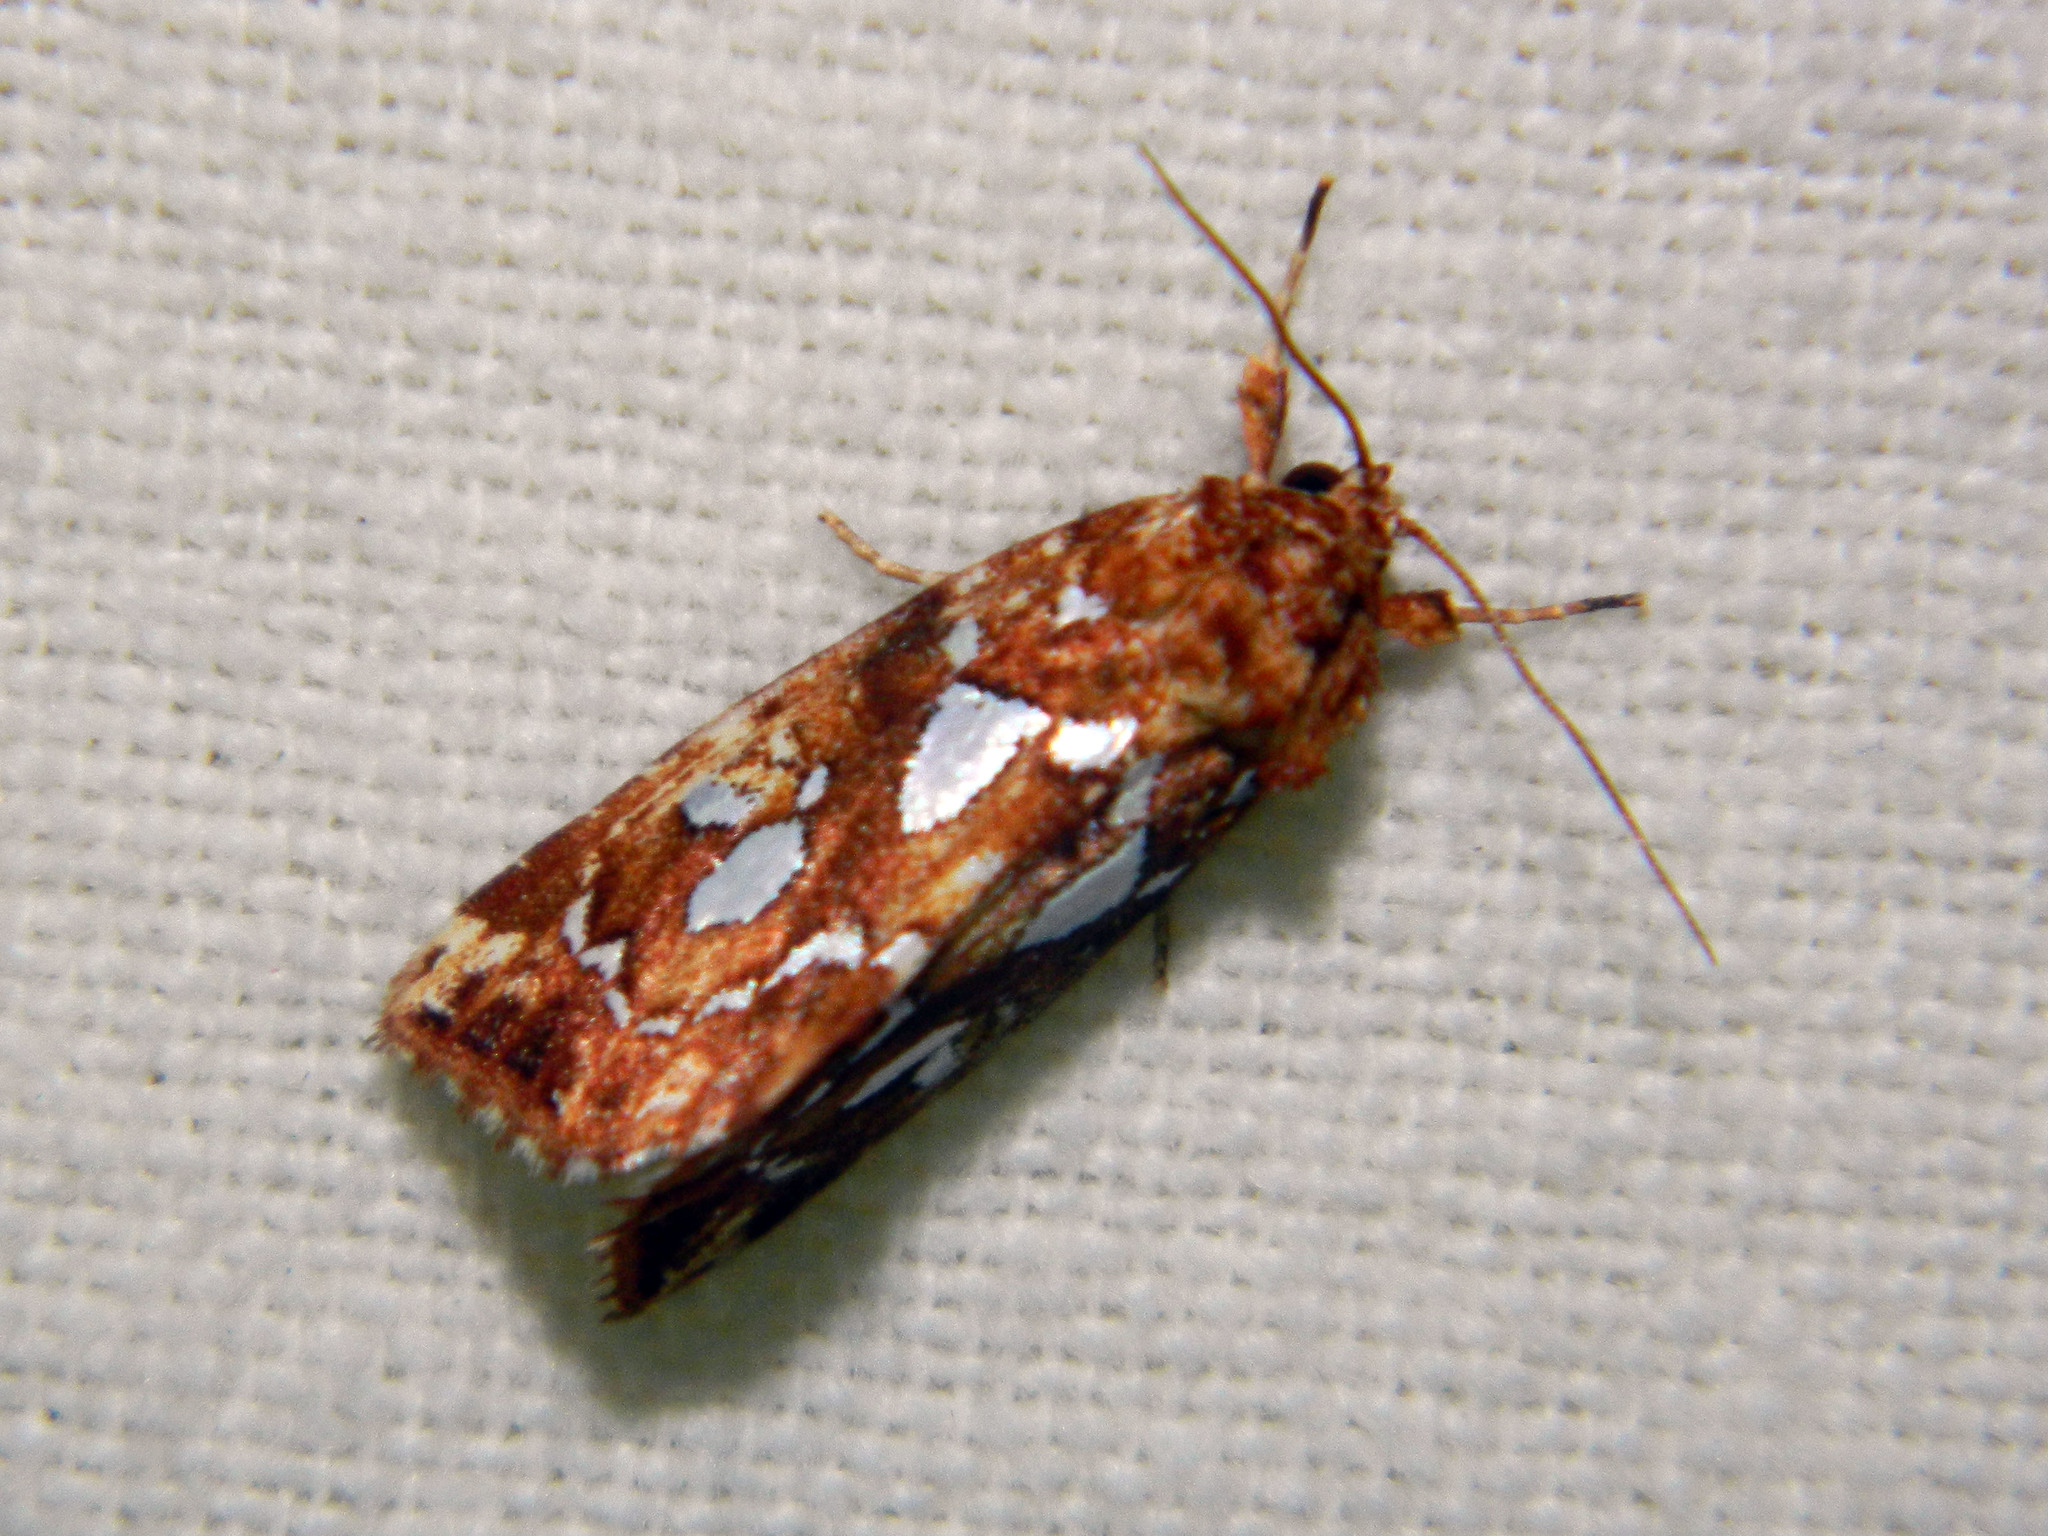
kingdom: Animalia
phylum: Arthropoda
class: Insecta
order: Lepidoptera
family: Noctuidae
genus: Callopistria
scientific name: Callopistria cordata
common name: Silver-spotted fern moth
